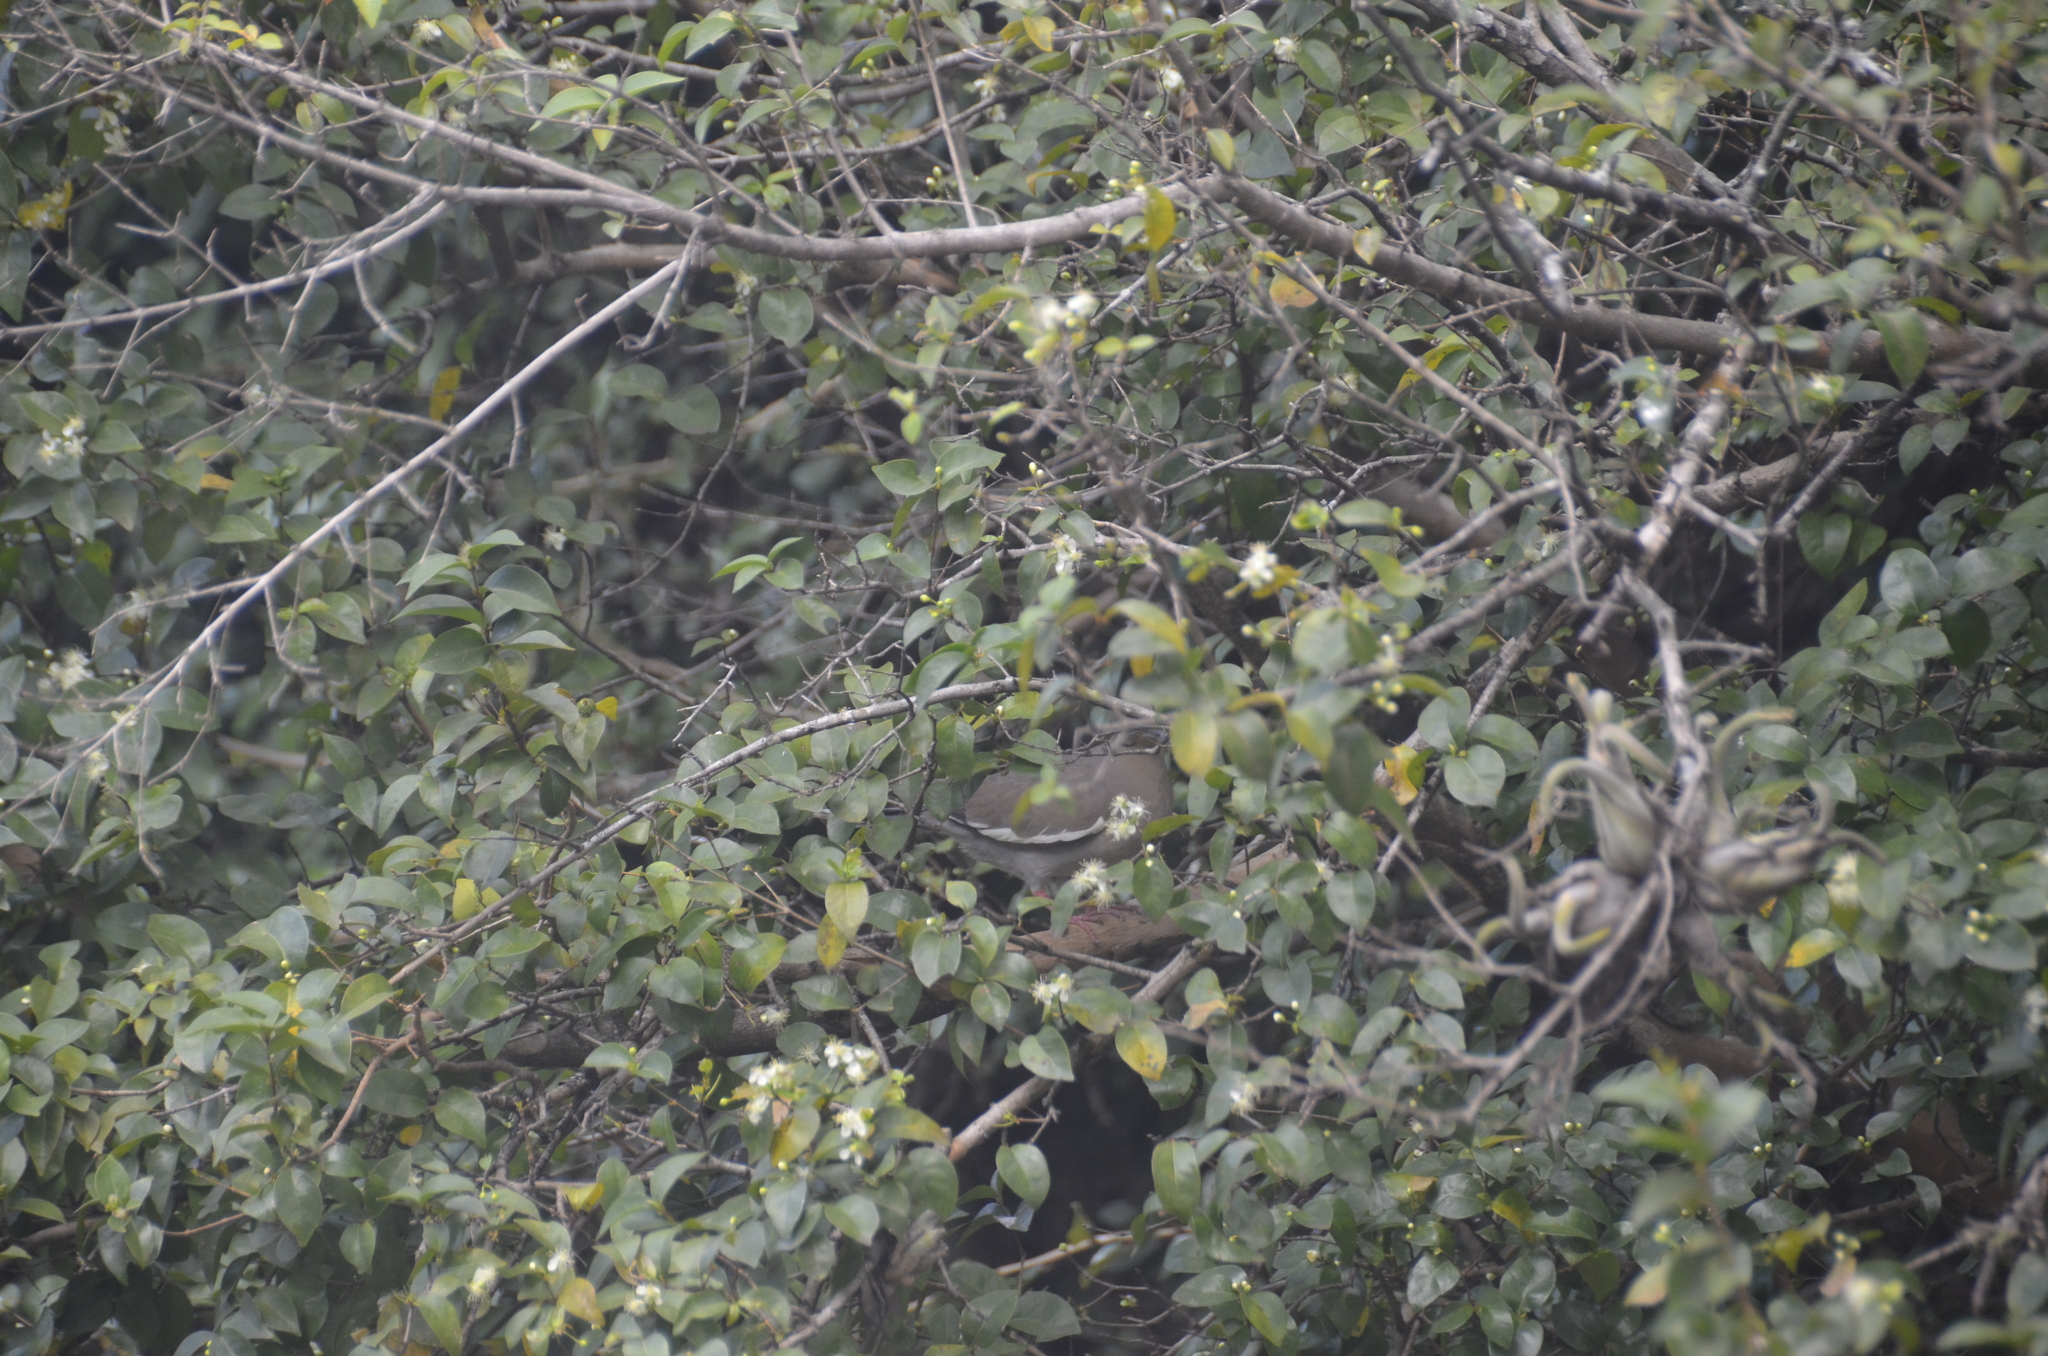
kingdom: Animalia
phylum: Chordata
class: Aves
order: Columbiformes
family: Columbidae
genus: Zenaida
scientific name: Zenaida asiatica
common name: White-winged dove
